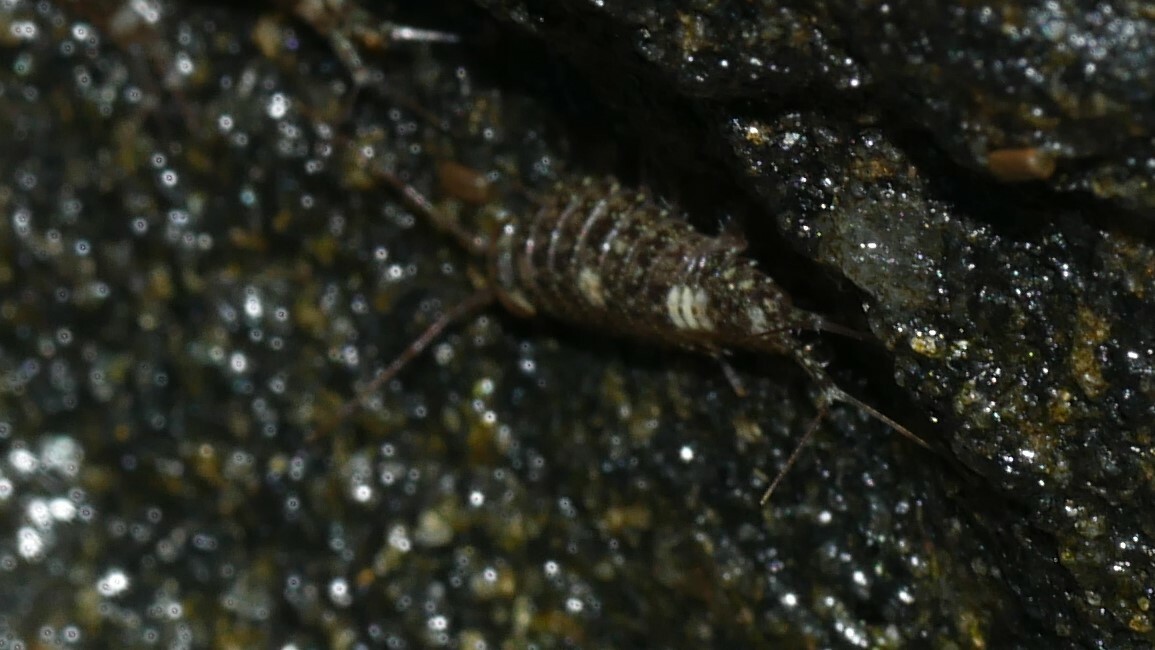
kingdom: Animalia
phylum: Arthropoda
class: Malacostraca
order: Isopoda
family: Ligiidae
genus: Ligia
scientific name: Ligia exotica
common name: Wharf roach
